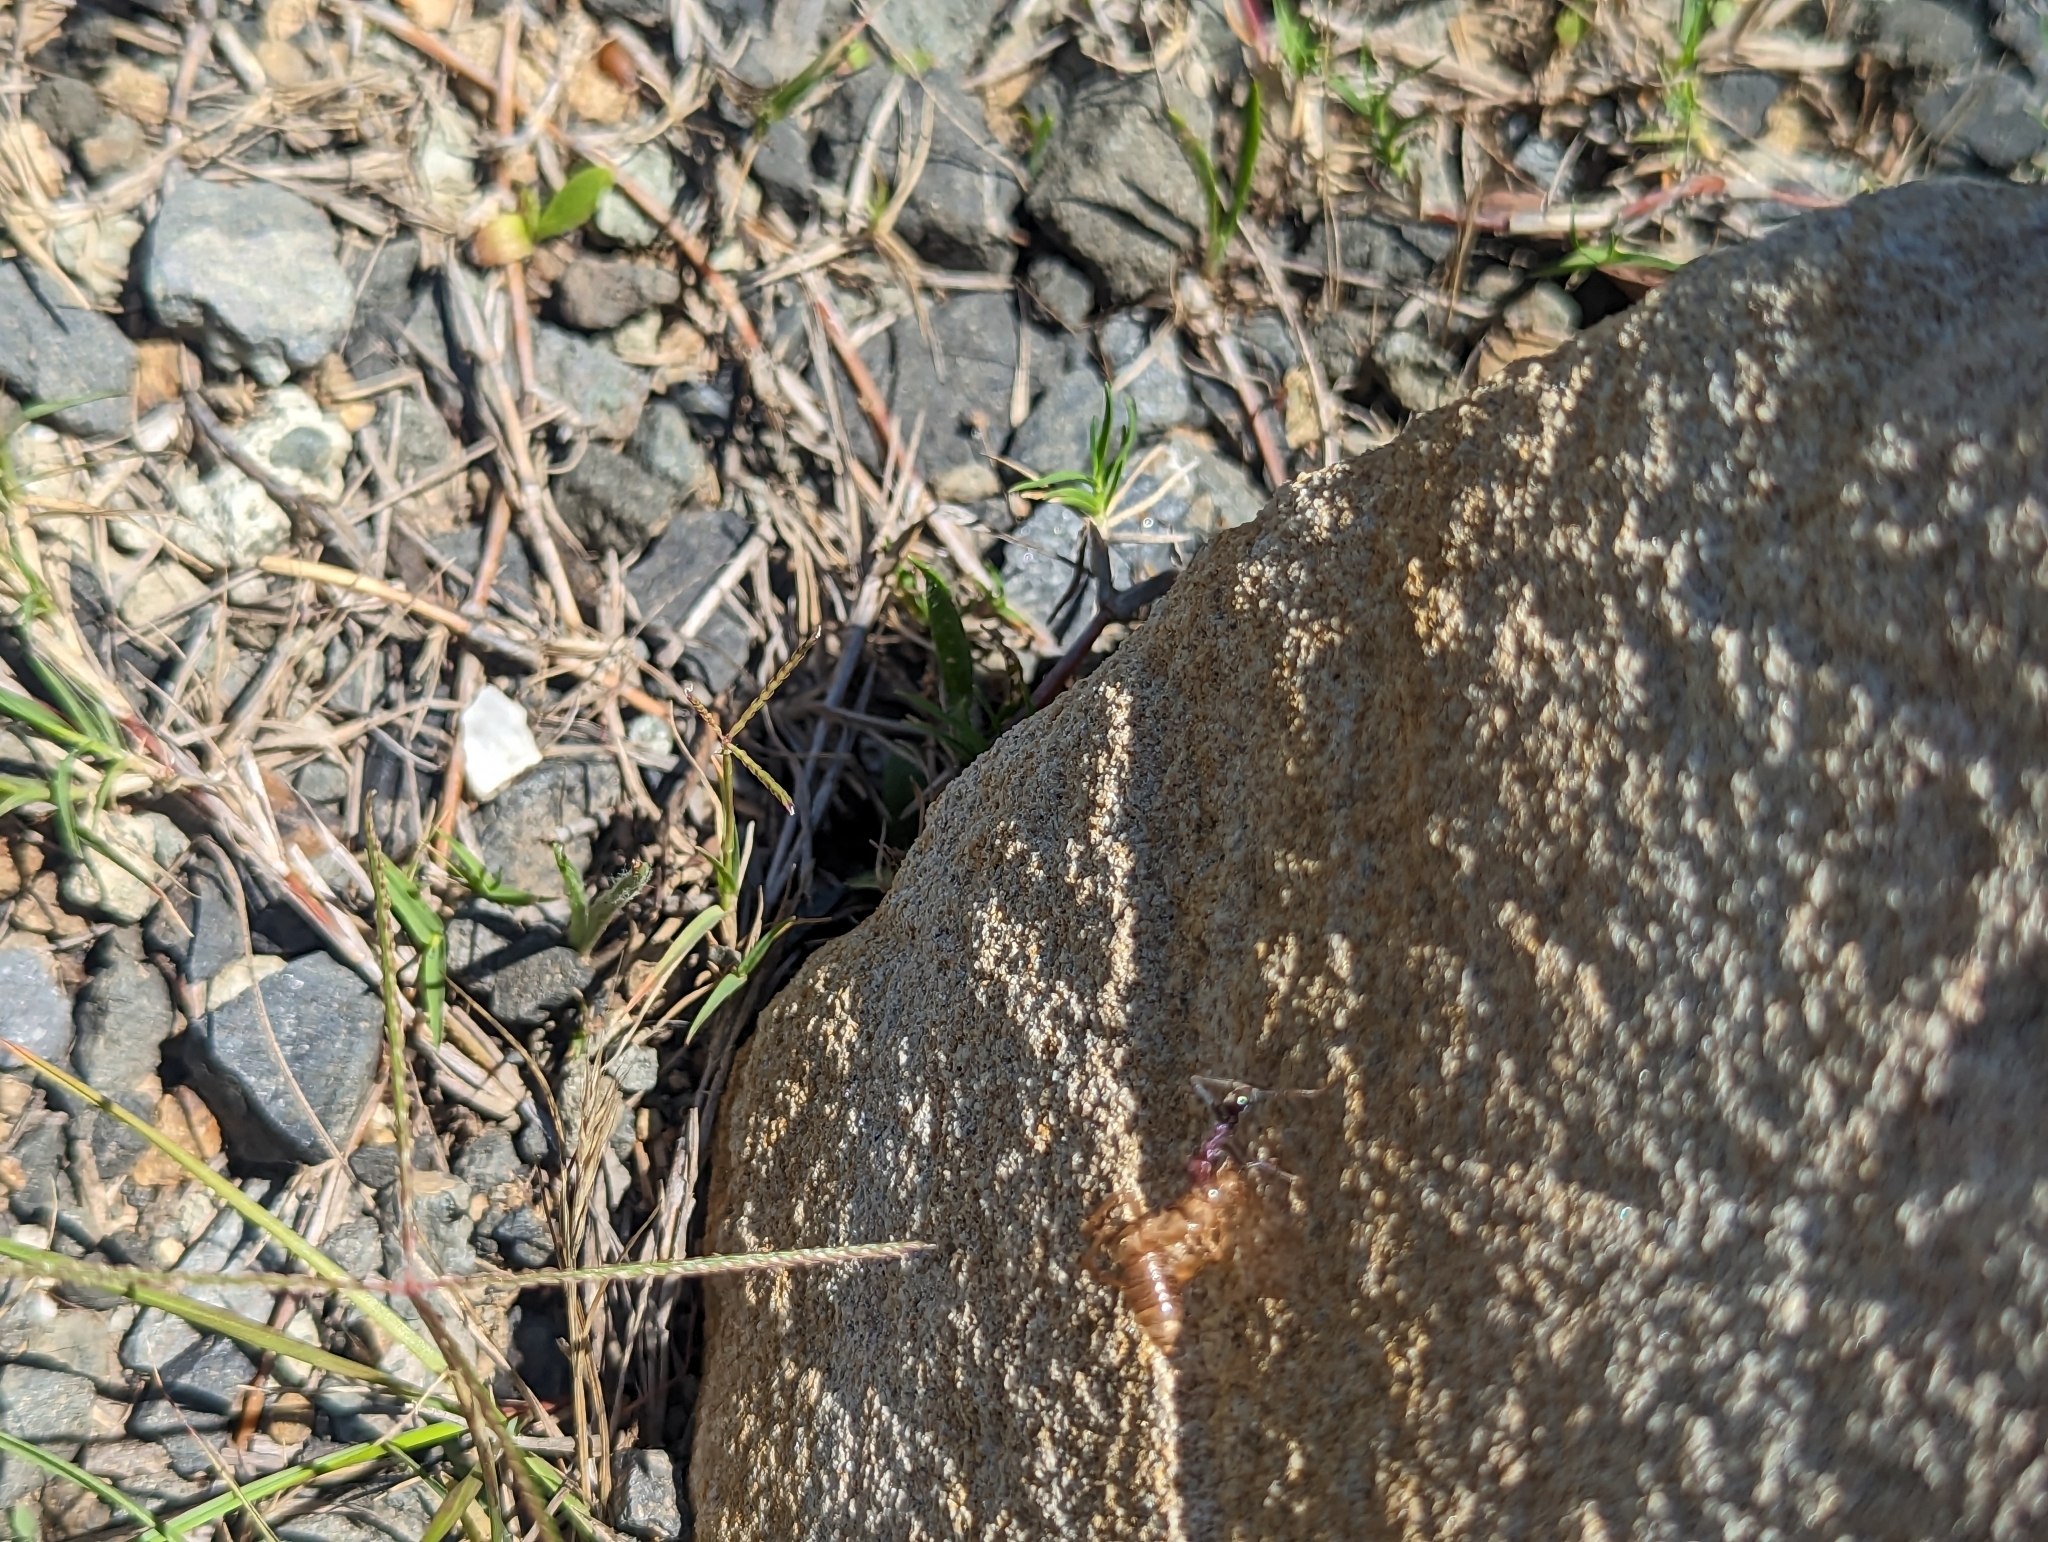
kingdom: Animalia
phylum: Arthropoda
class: Insecta
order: Hymenoptera
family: Formicidae
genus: Iridomyrmex
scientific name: Iridomyrmex purpureus
